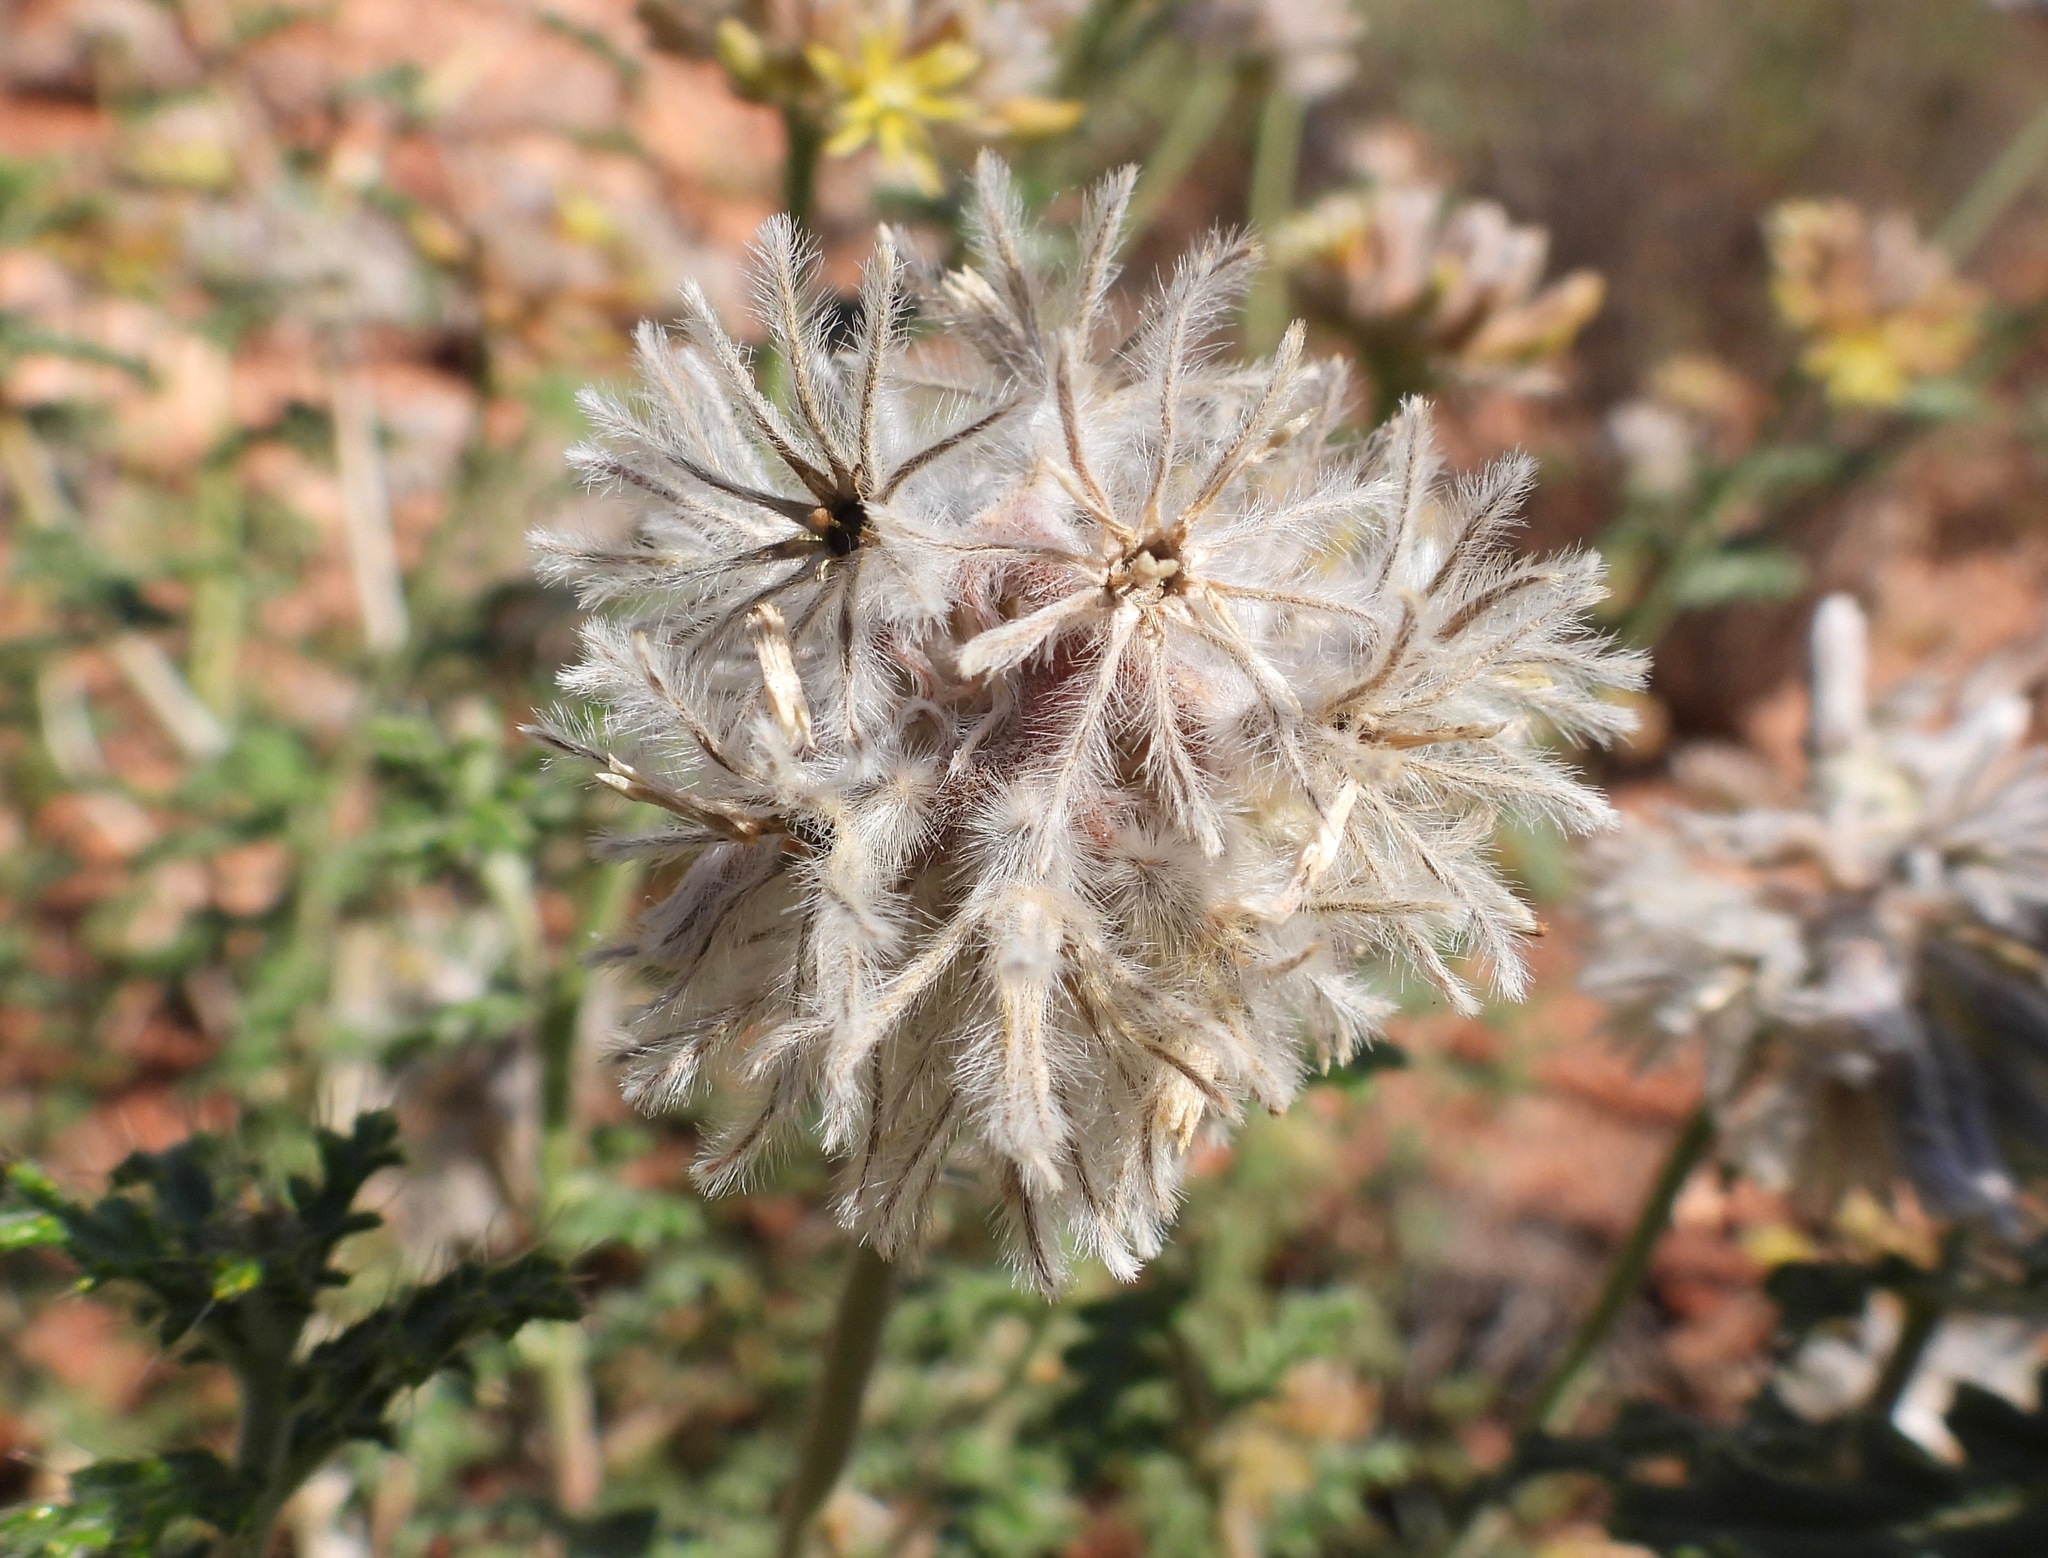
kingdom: Plantae
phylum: Tracheophyta
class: Magnoliopsida
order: Cornales
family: Loasaceae
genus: Cevallia
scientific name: Cevallia sinuata
